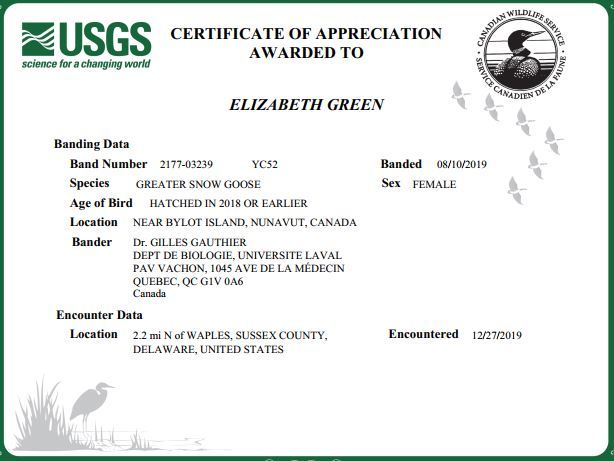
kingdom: Animalia
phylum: Chordata
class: Aves
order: Anseriformes
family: Anatidae
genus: Anser
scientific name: Anser caerulescens
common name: Snow goose
